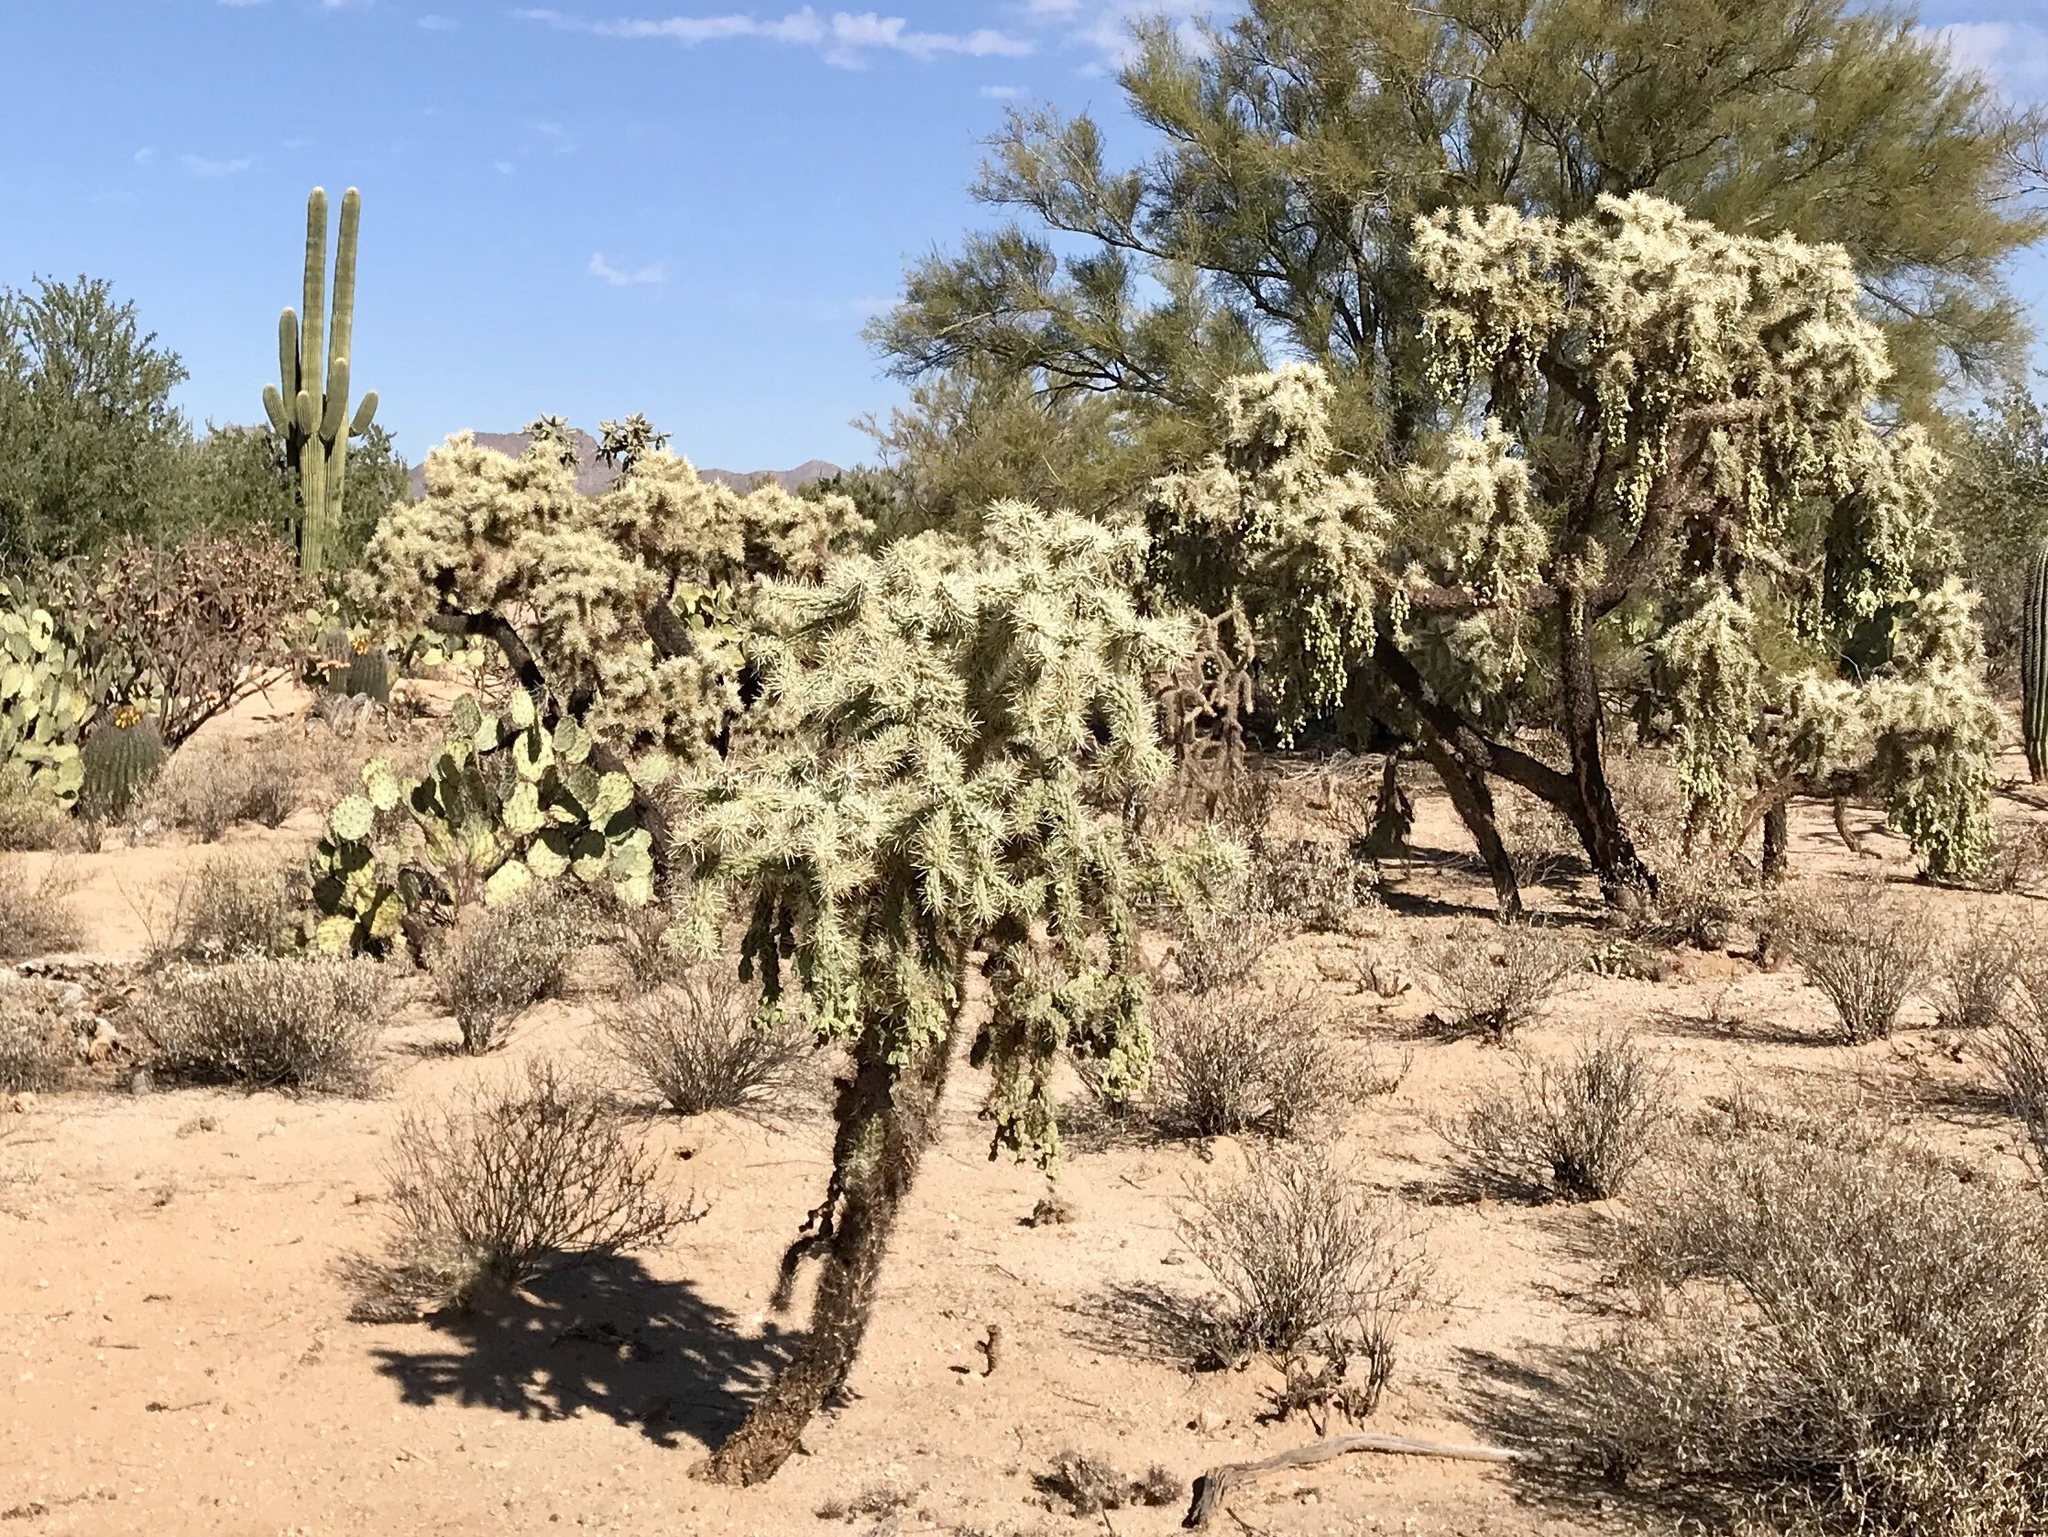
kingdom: Plantae
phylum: Tracheophyta
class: Magnoliopsida
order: Caryophyllales
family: Cactaceae
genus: Cylindropuntia
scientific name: Cylindropuntia fulgida
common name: Jumping cholla
